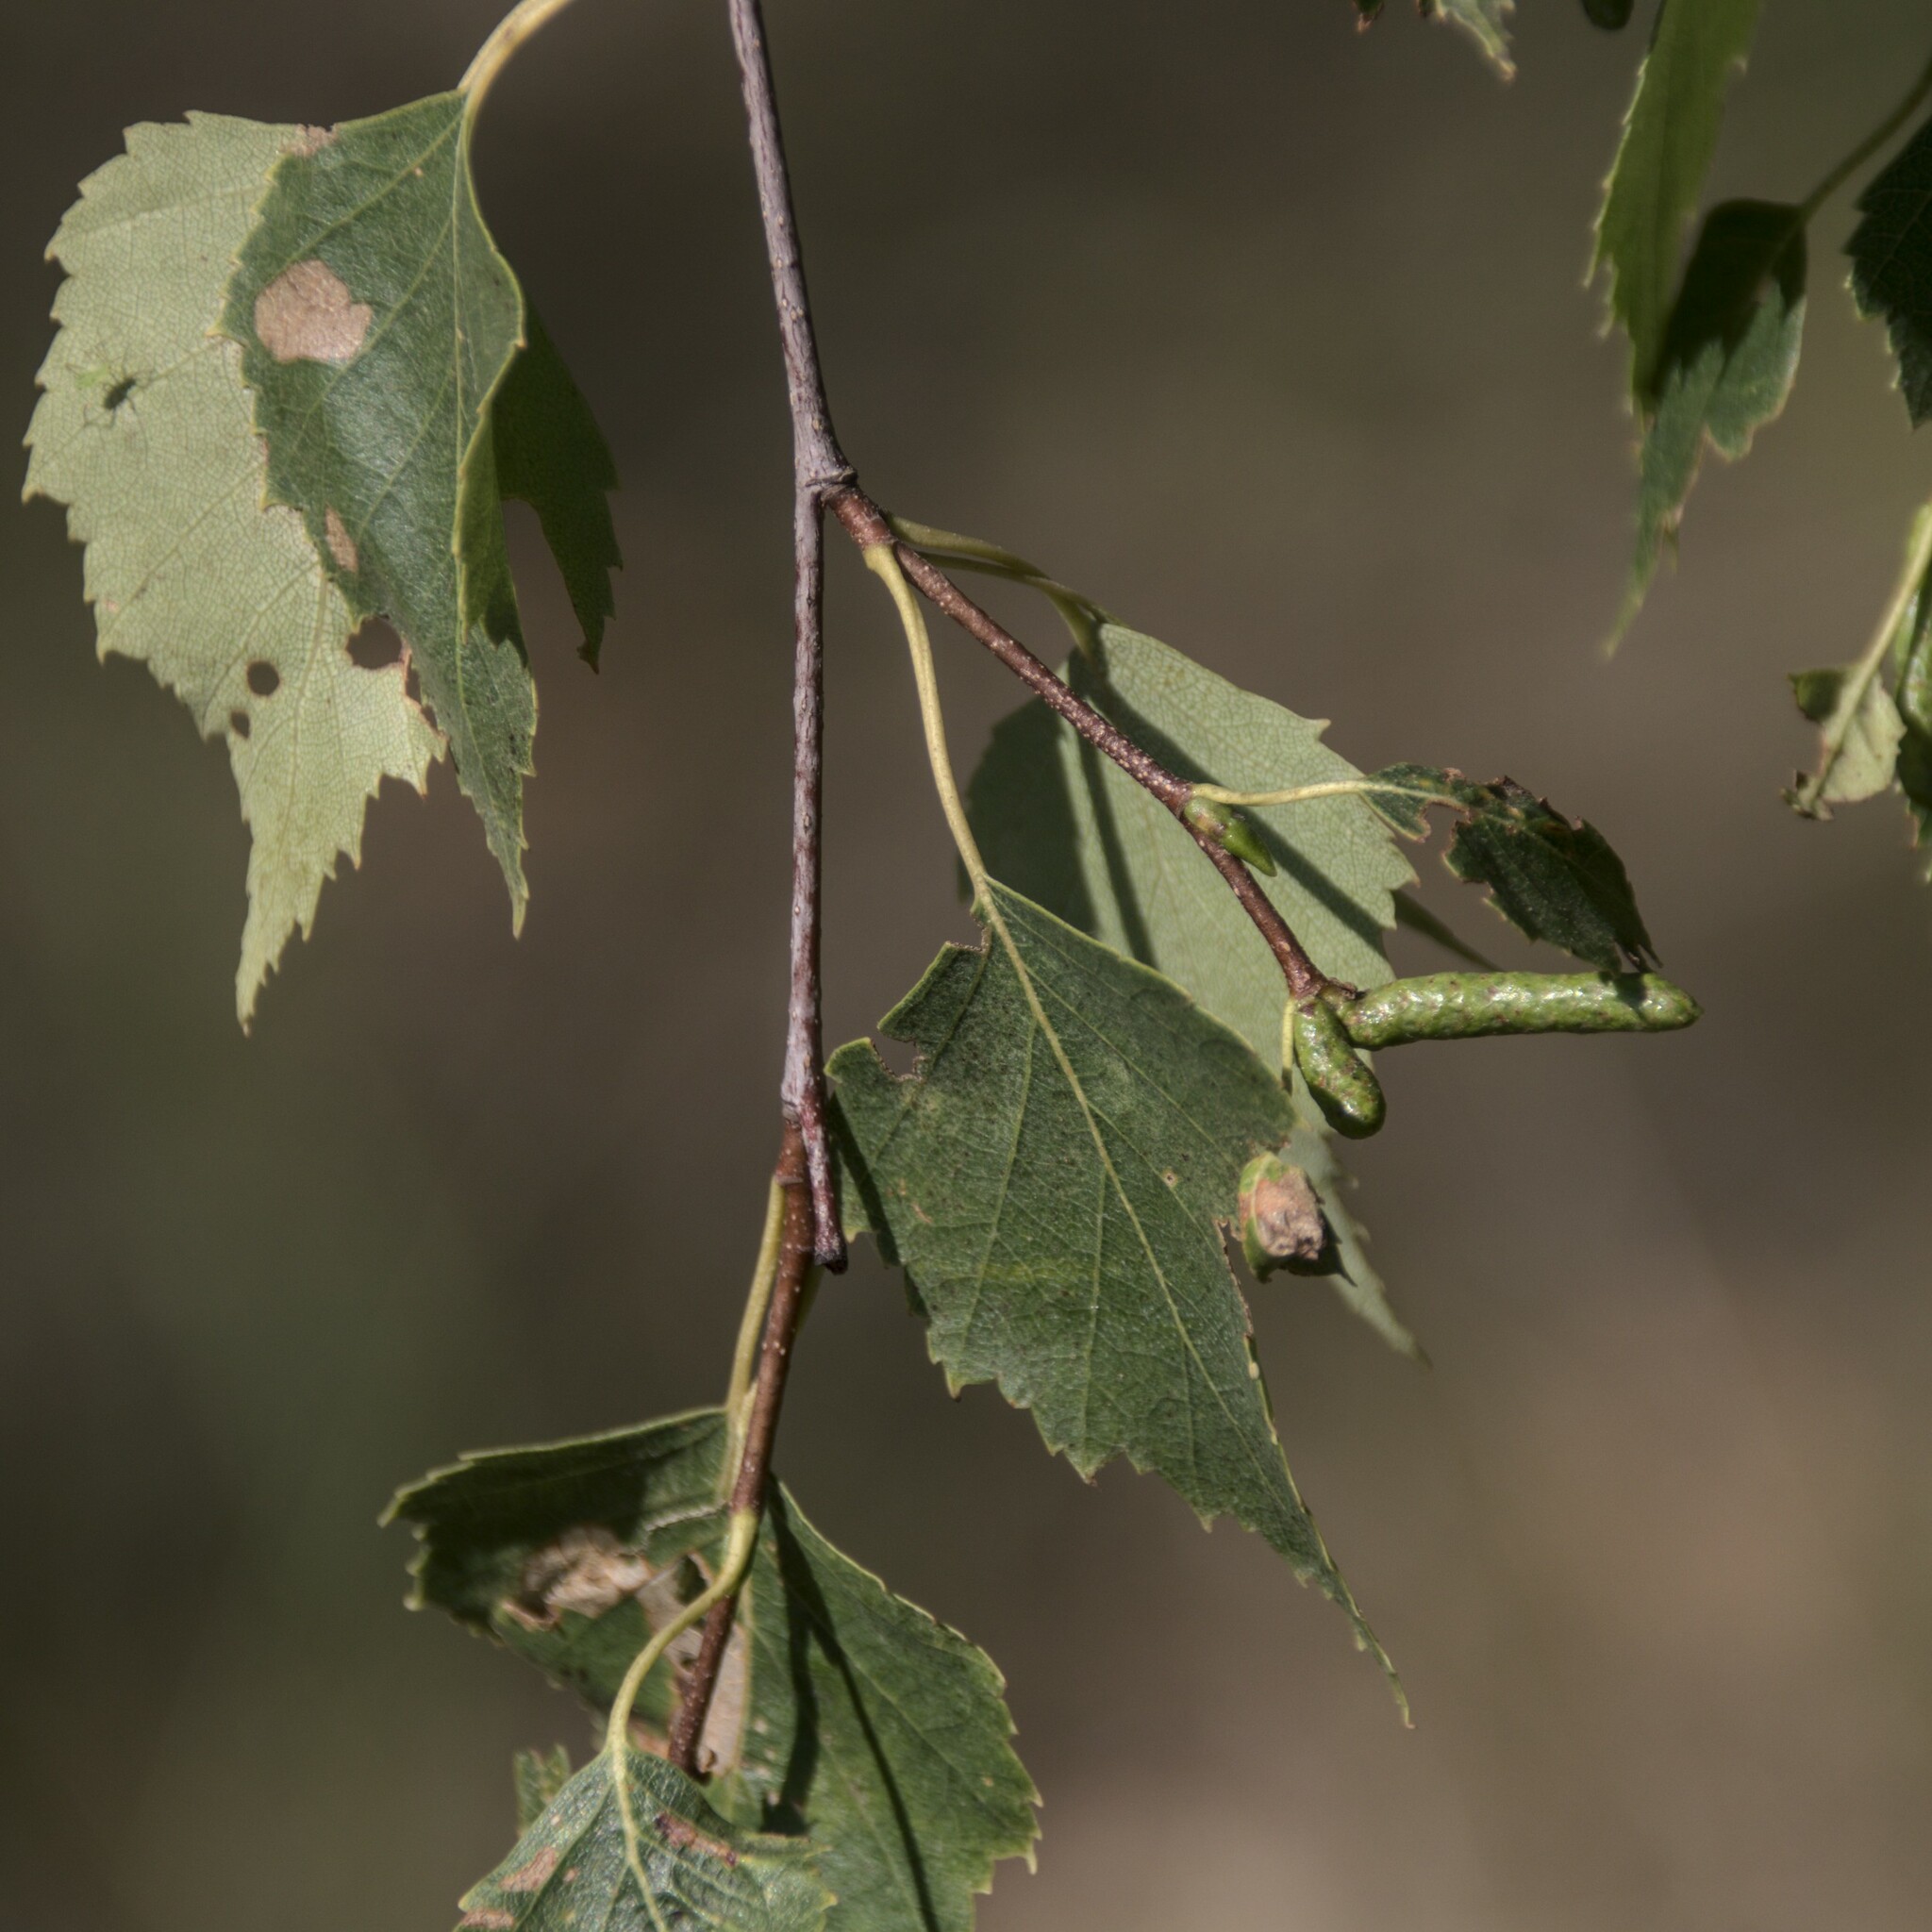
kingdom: Plantae
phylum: Tracheophyta
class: Magnoliopsida
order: Fagales
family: Betulaceae
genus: Betula
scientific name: Betula pendula
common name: Silver birch
